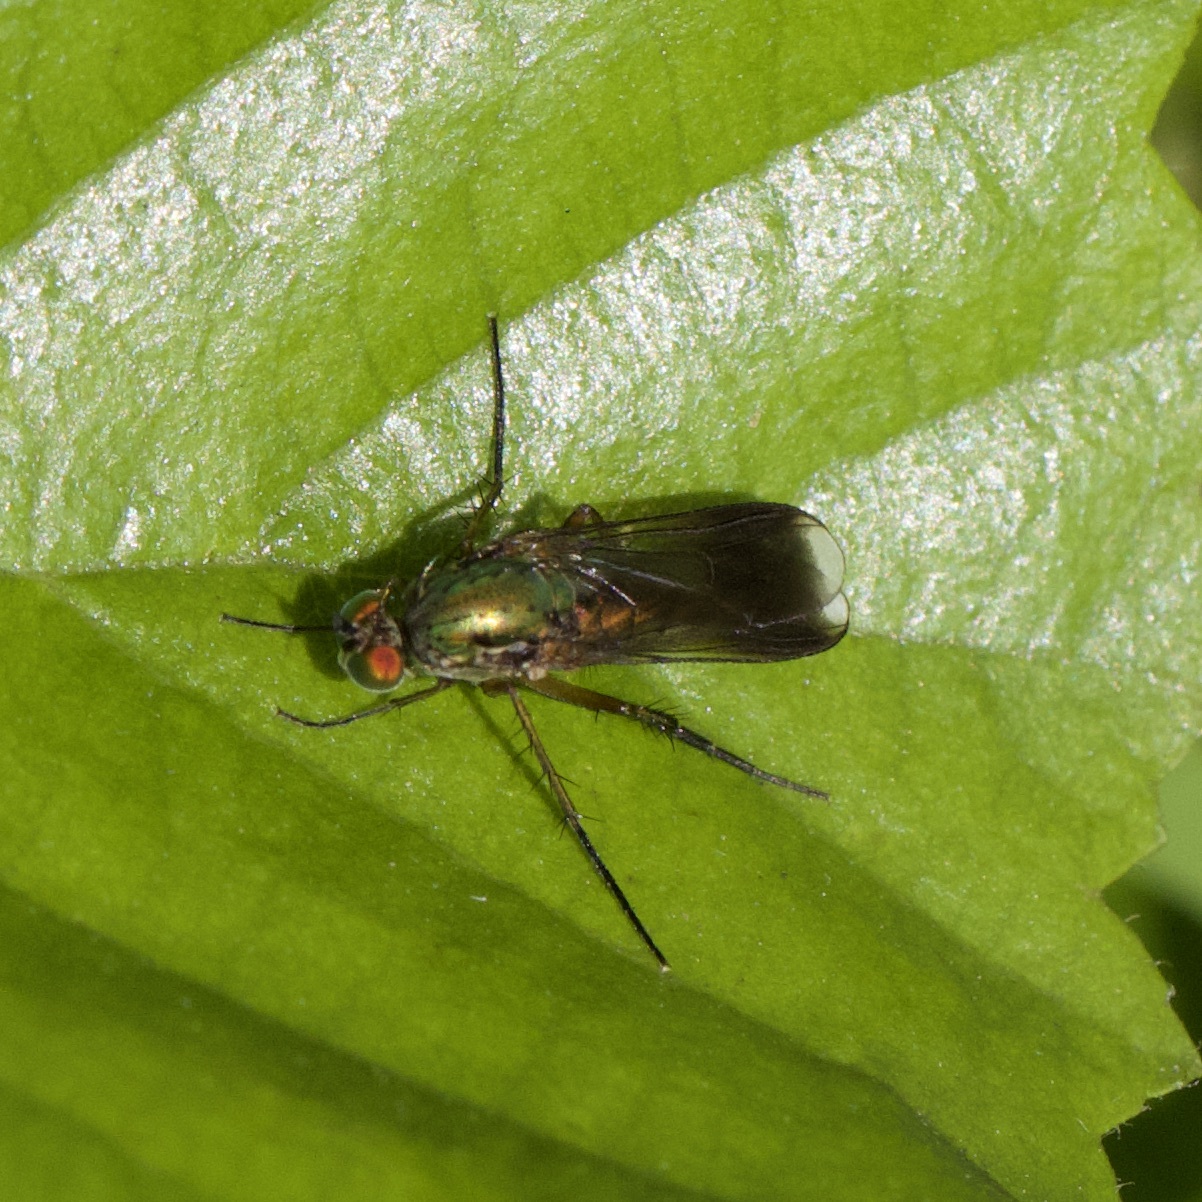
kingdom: Animalia
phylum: Arthropoda
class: Insecta
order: Diptera
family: Dolichopodidae
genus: Poecilobothrus
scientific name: Poecilobothrus nobilitatus
